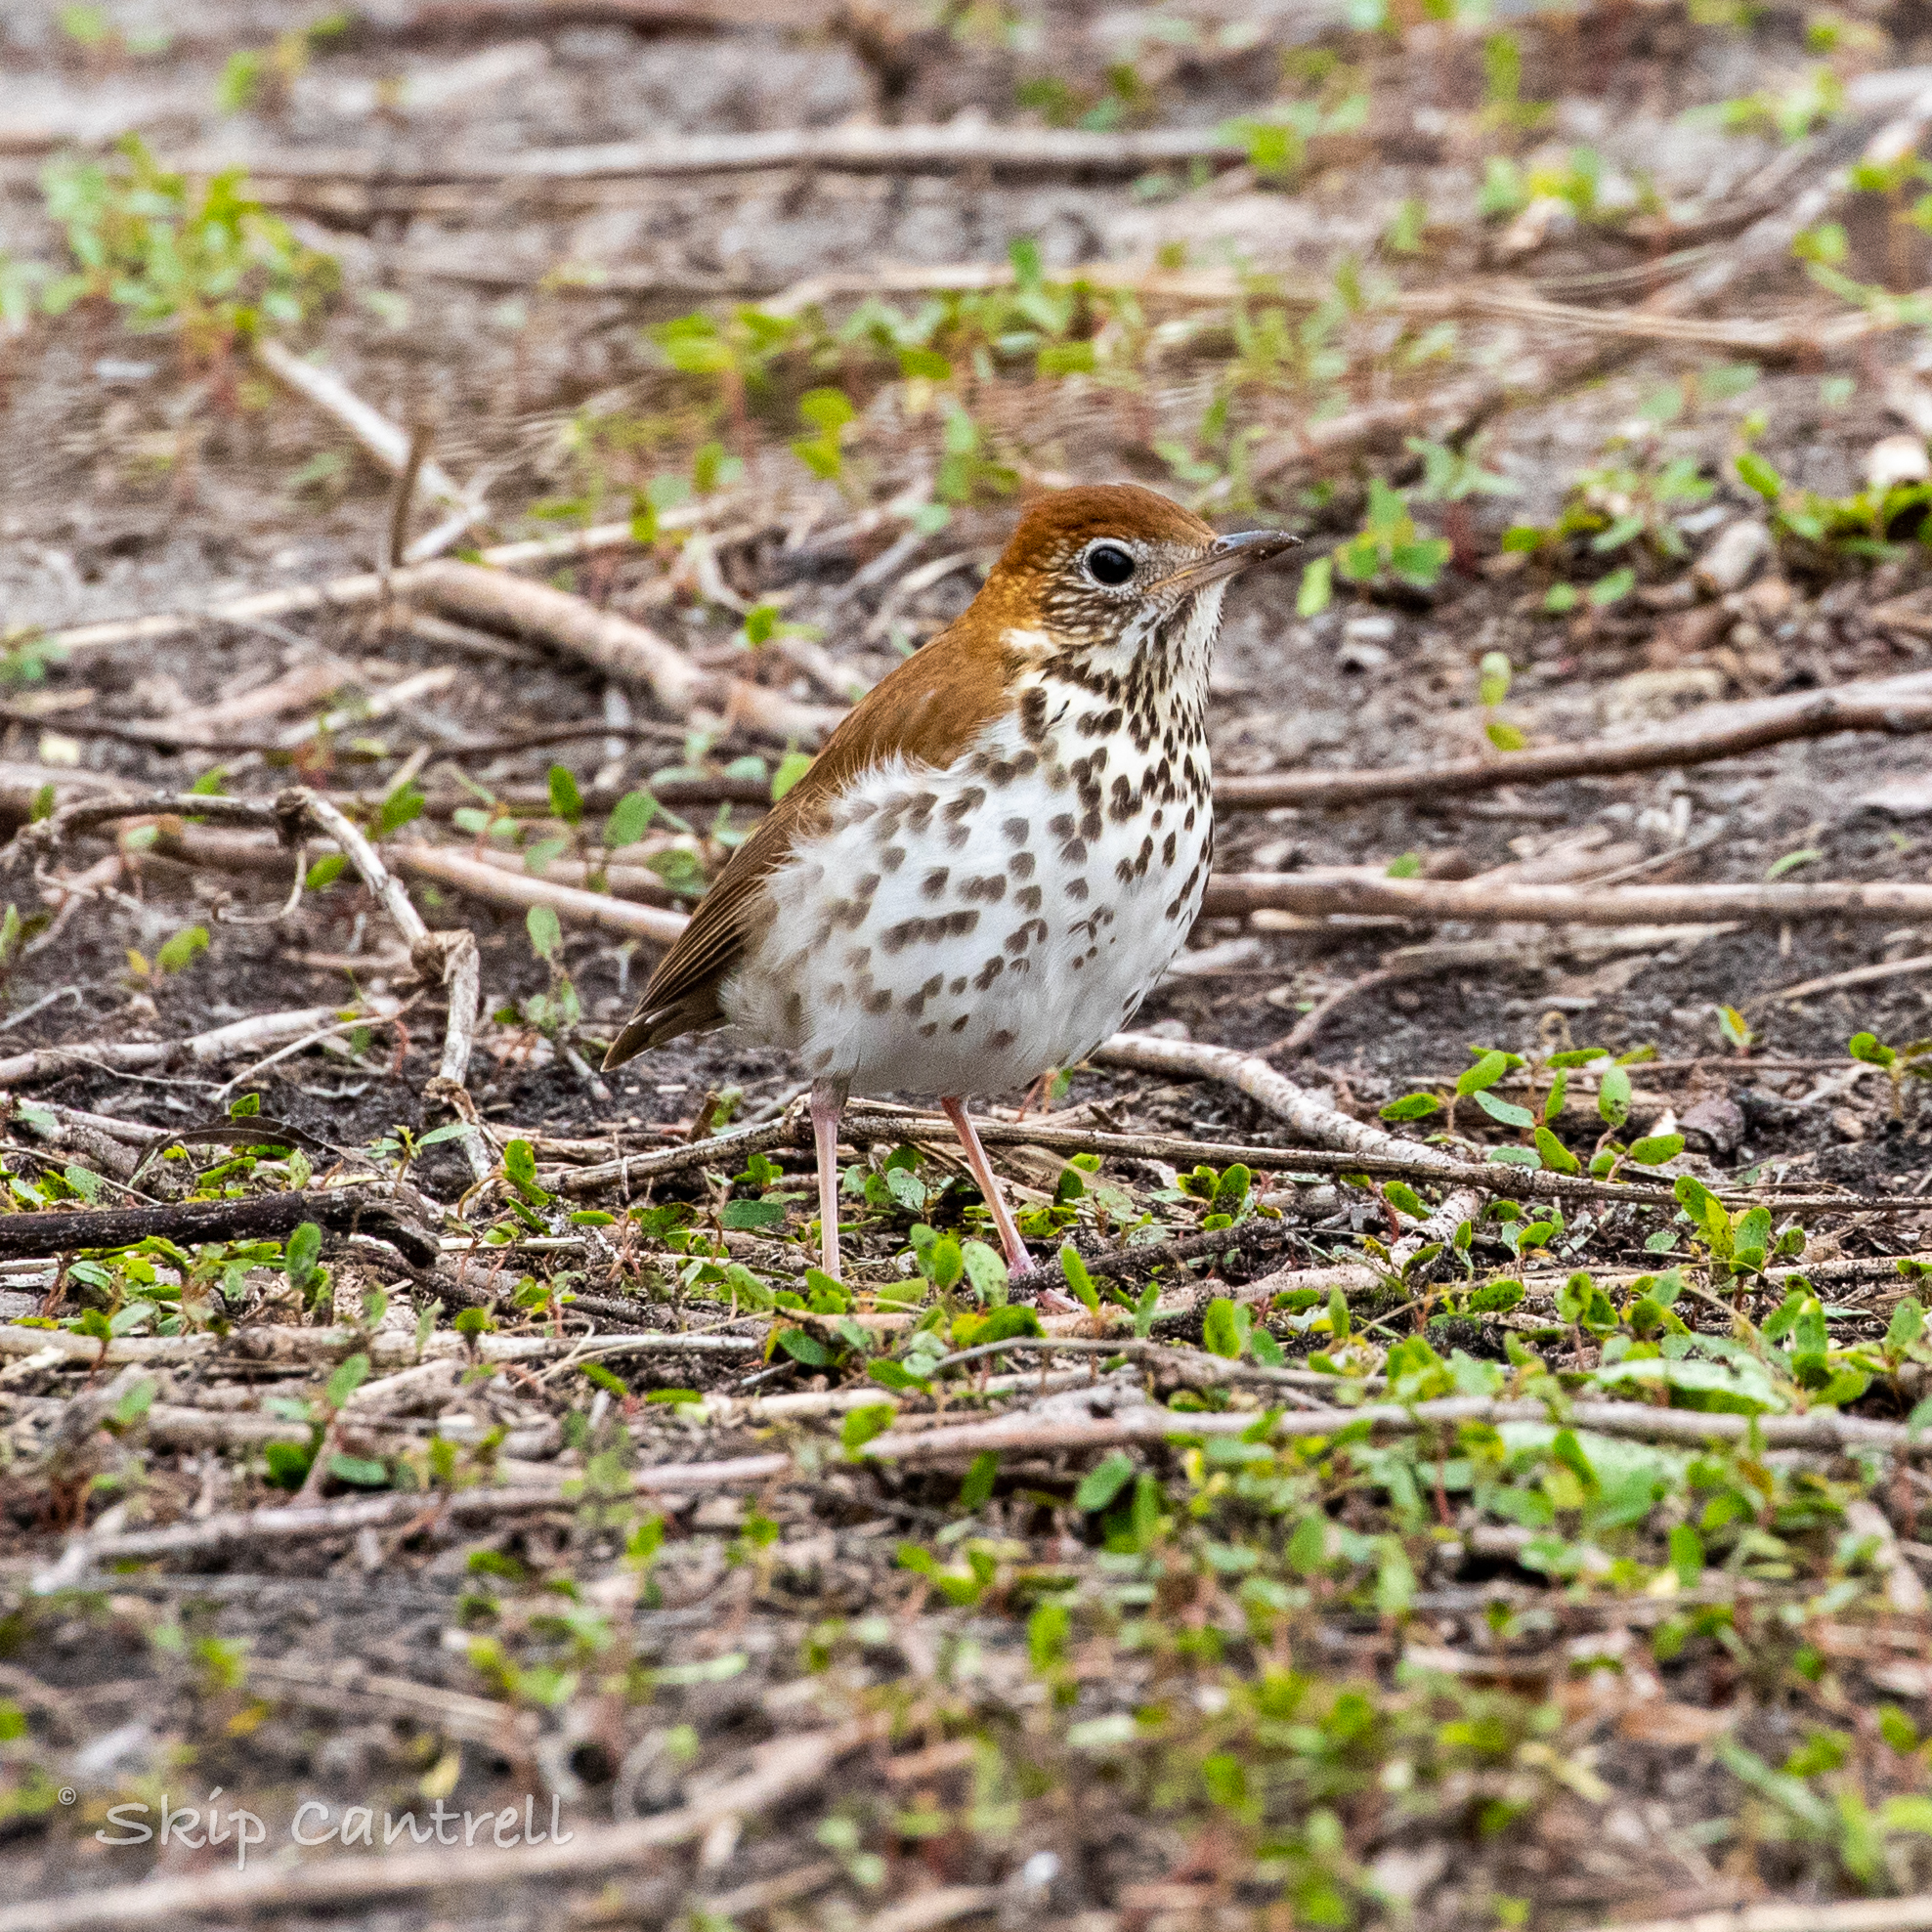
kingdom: Animalia
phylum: Chordata
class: Aves
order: Passeriformes
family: Turdidae
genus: Hylocichla
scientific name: Hylocichla mustelina
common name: Wood thrush
